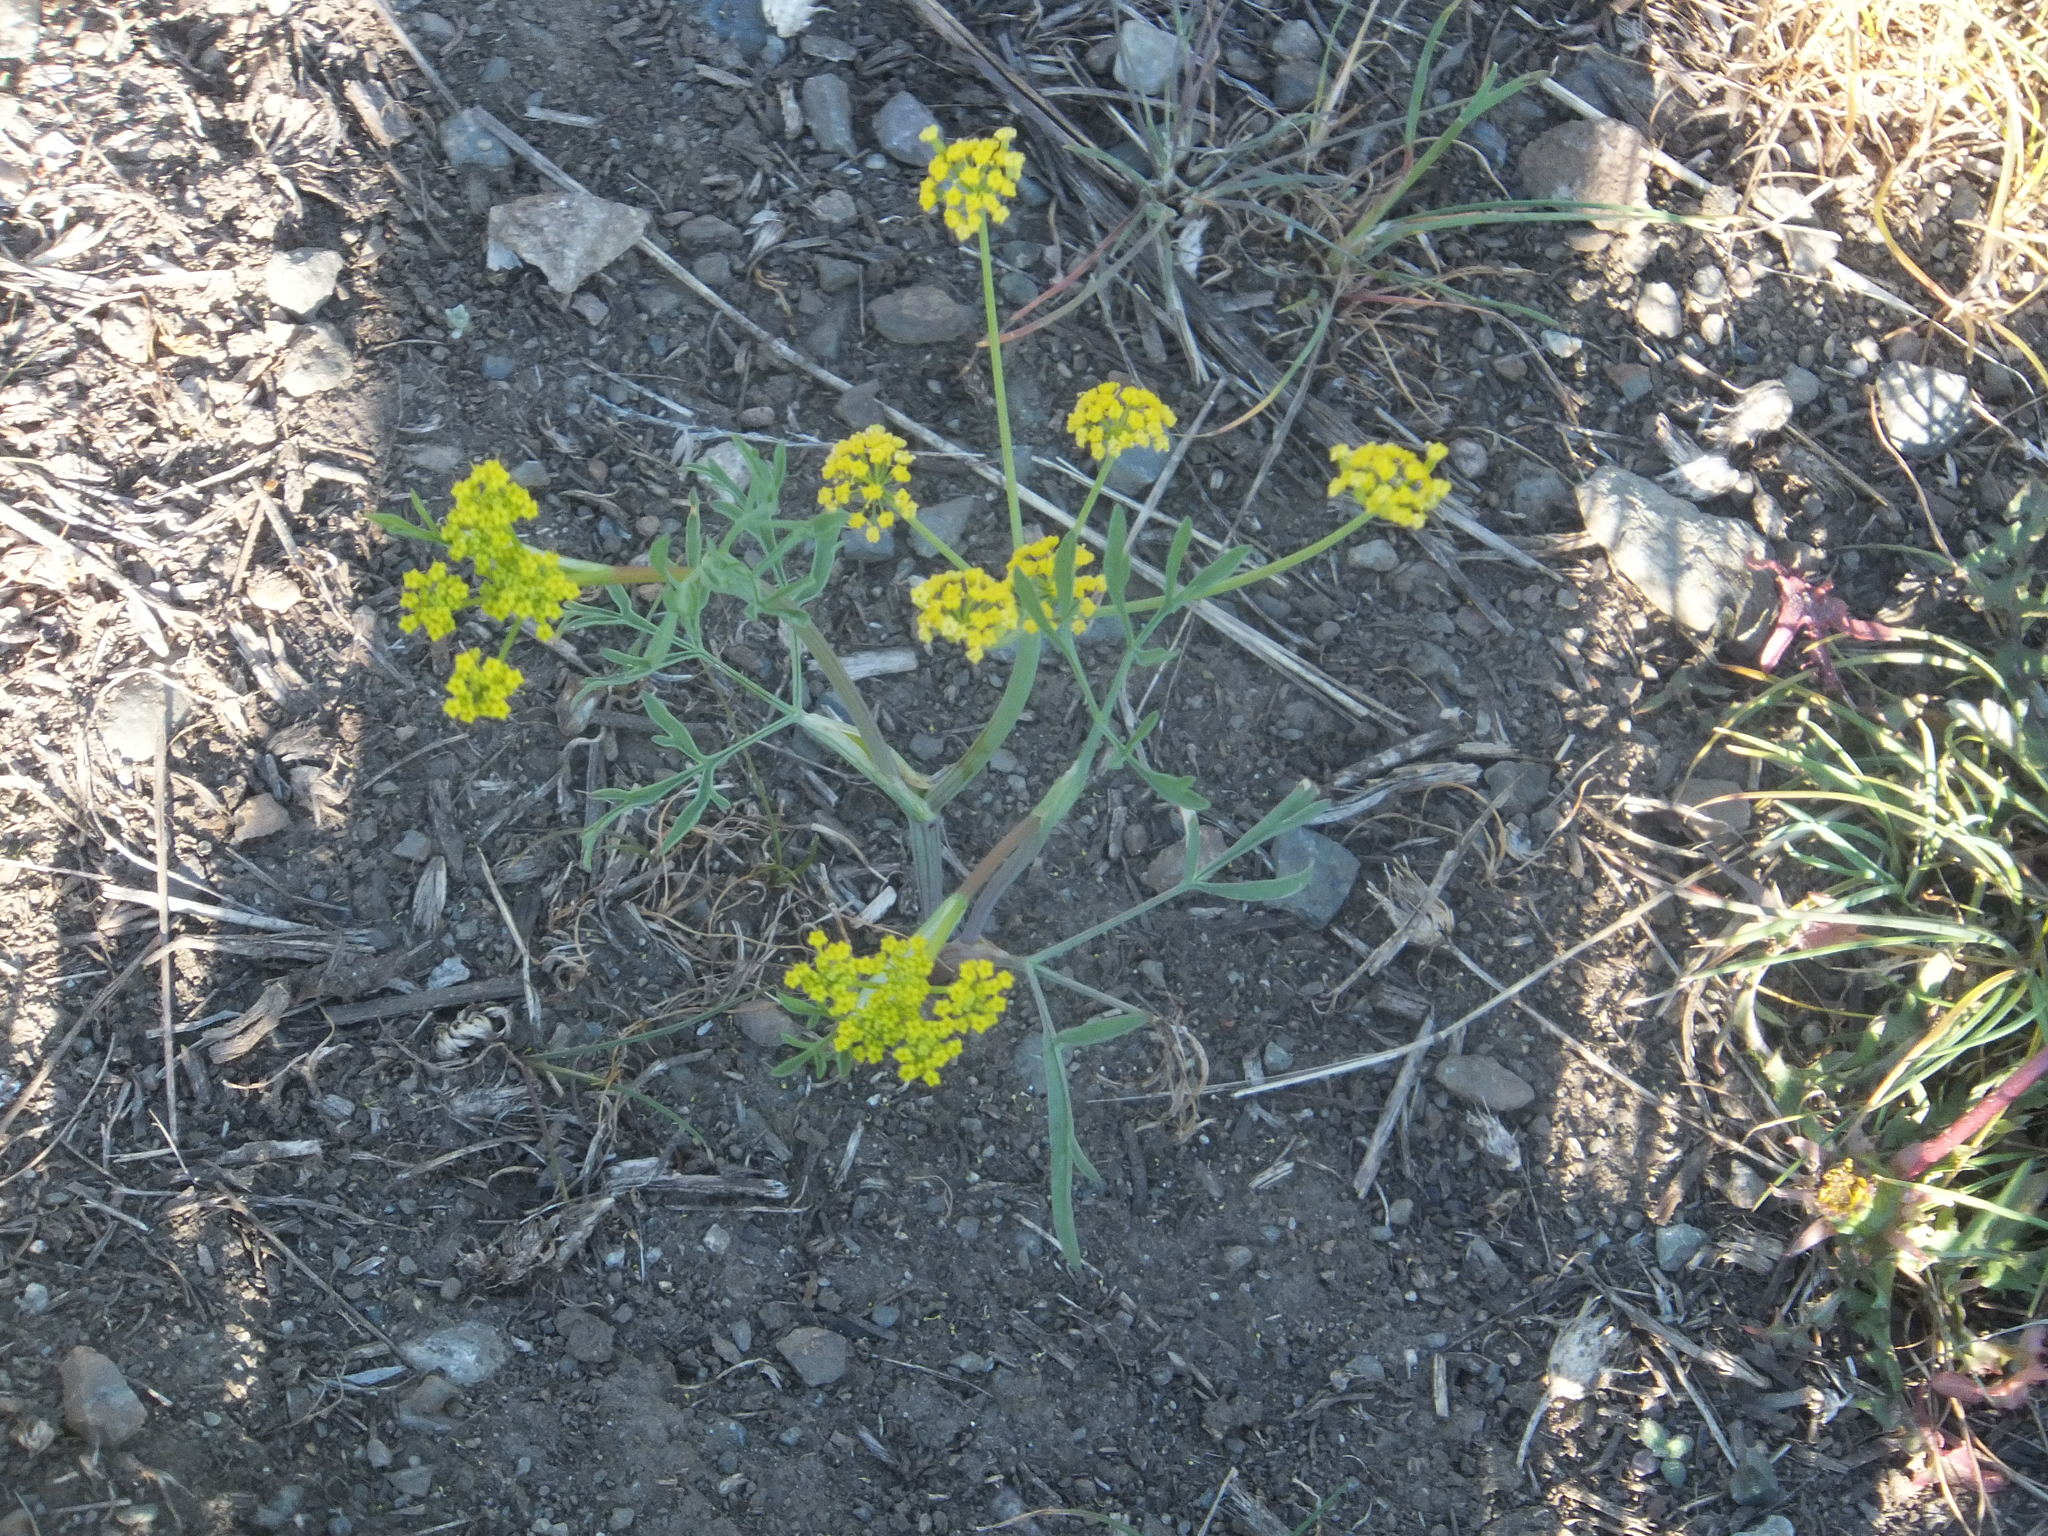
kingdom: Plantae
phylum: Tracheophyta
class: Magnoliopsida
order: Apiales
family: Apiaceae
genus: Lomatium
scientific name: Lomatium ambiguum
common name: Lacy lomatium
